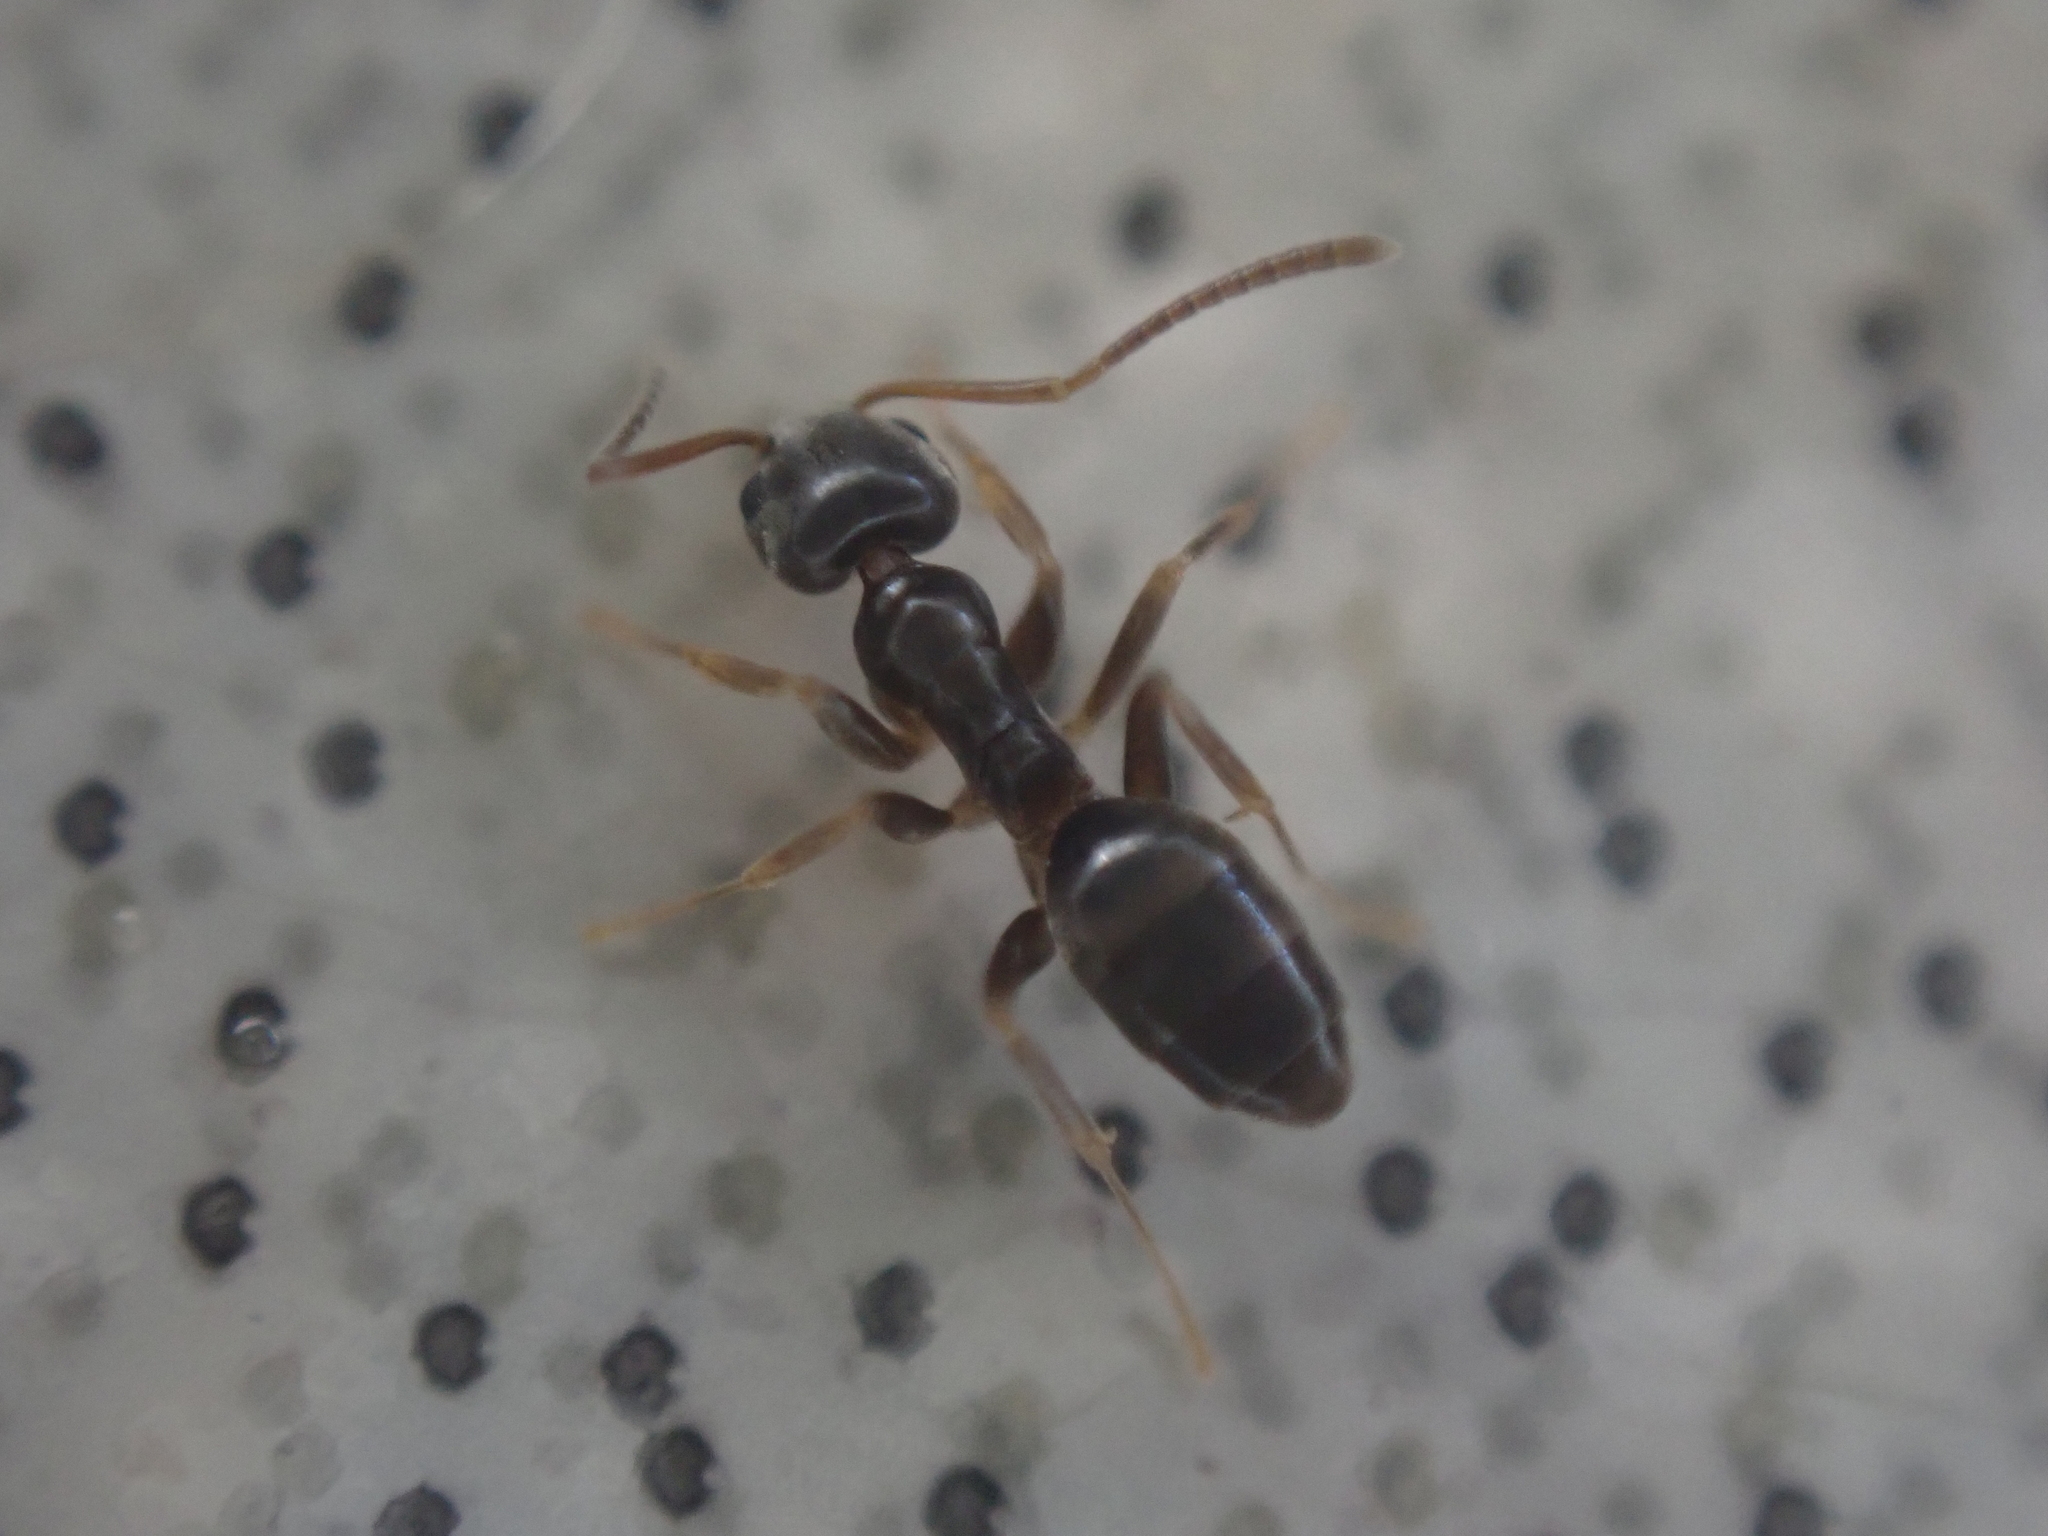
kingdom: Animalia
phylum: Arthropoda
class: Insecta
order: Hymenoptera
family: Formicidae
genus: Tapinoma
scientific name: Tapinoma sessile
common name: Odorous house ant
